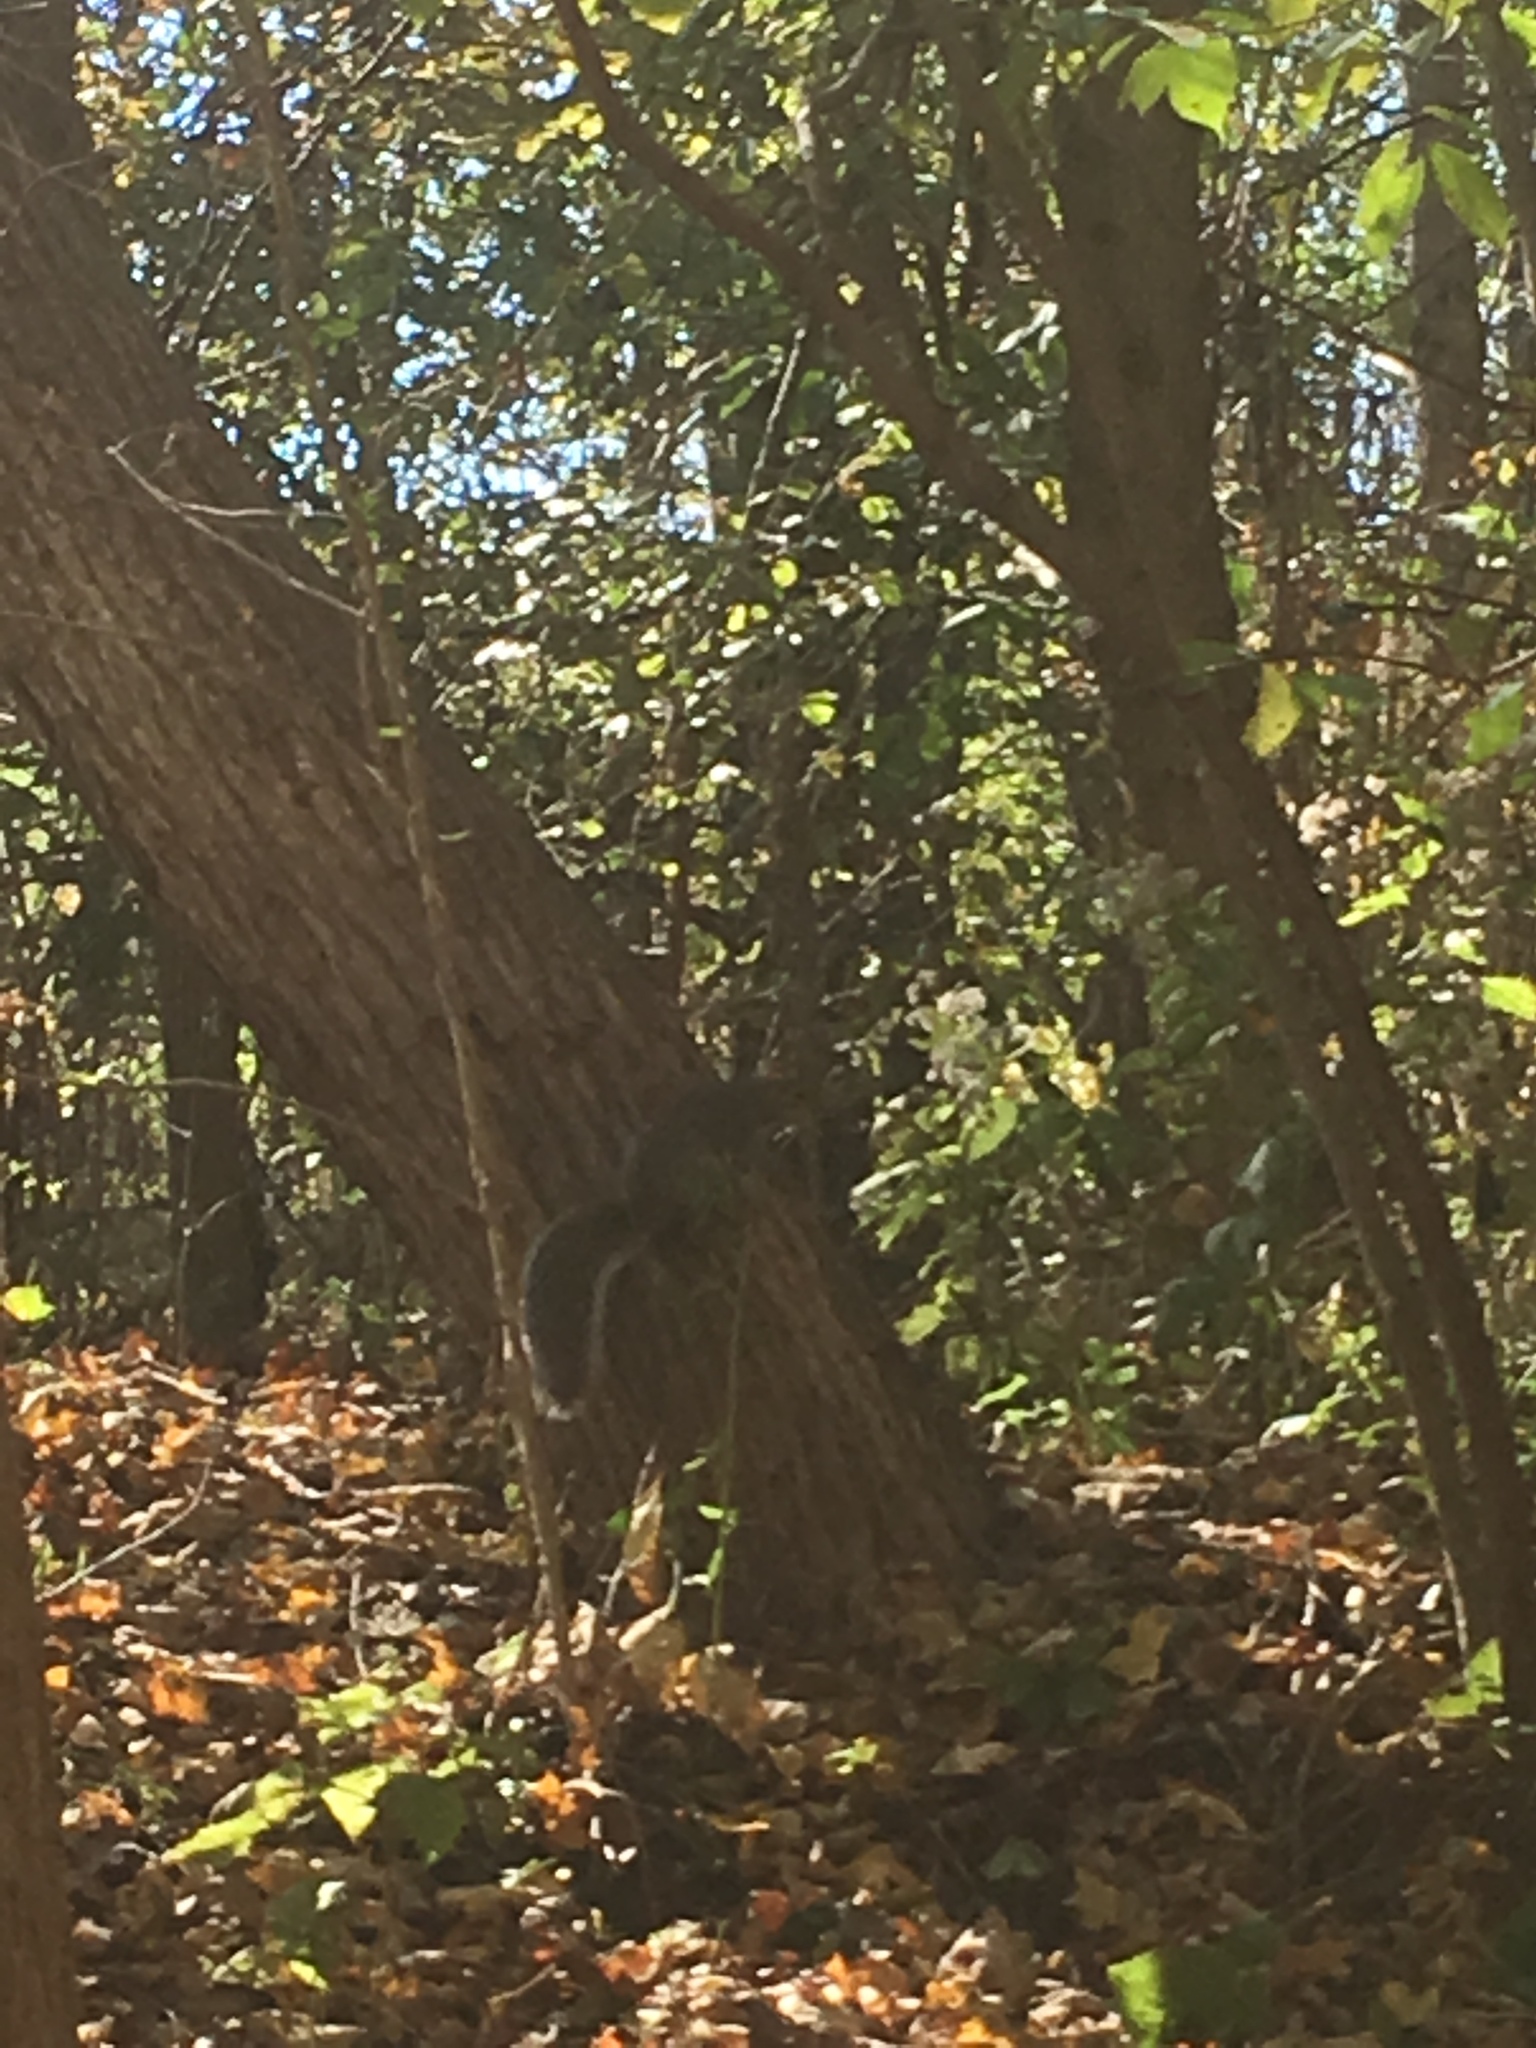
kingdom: Animalia
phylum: Chordata
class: Mammalia
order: Rodentia
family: Sciuridae
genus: Sciurus
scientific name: Sciurus carolinensis
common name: Eastern gray squirrel
